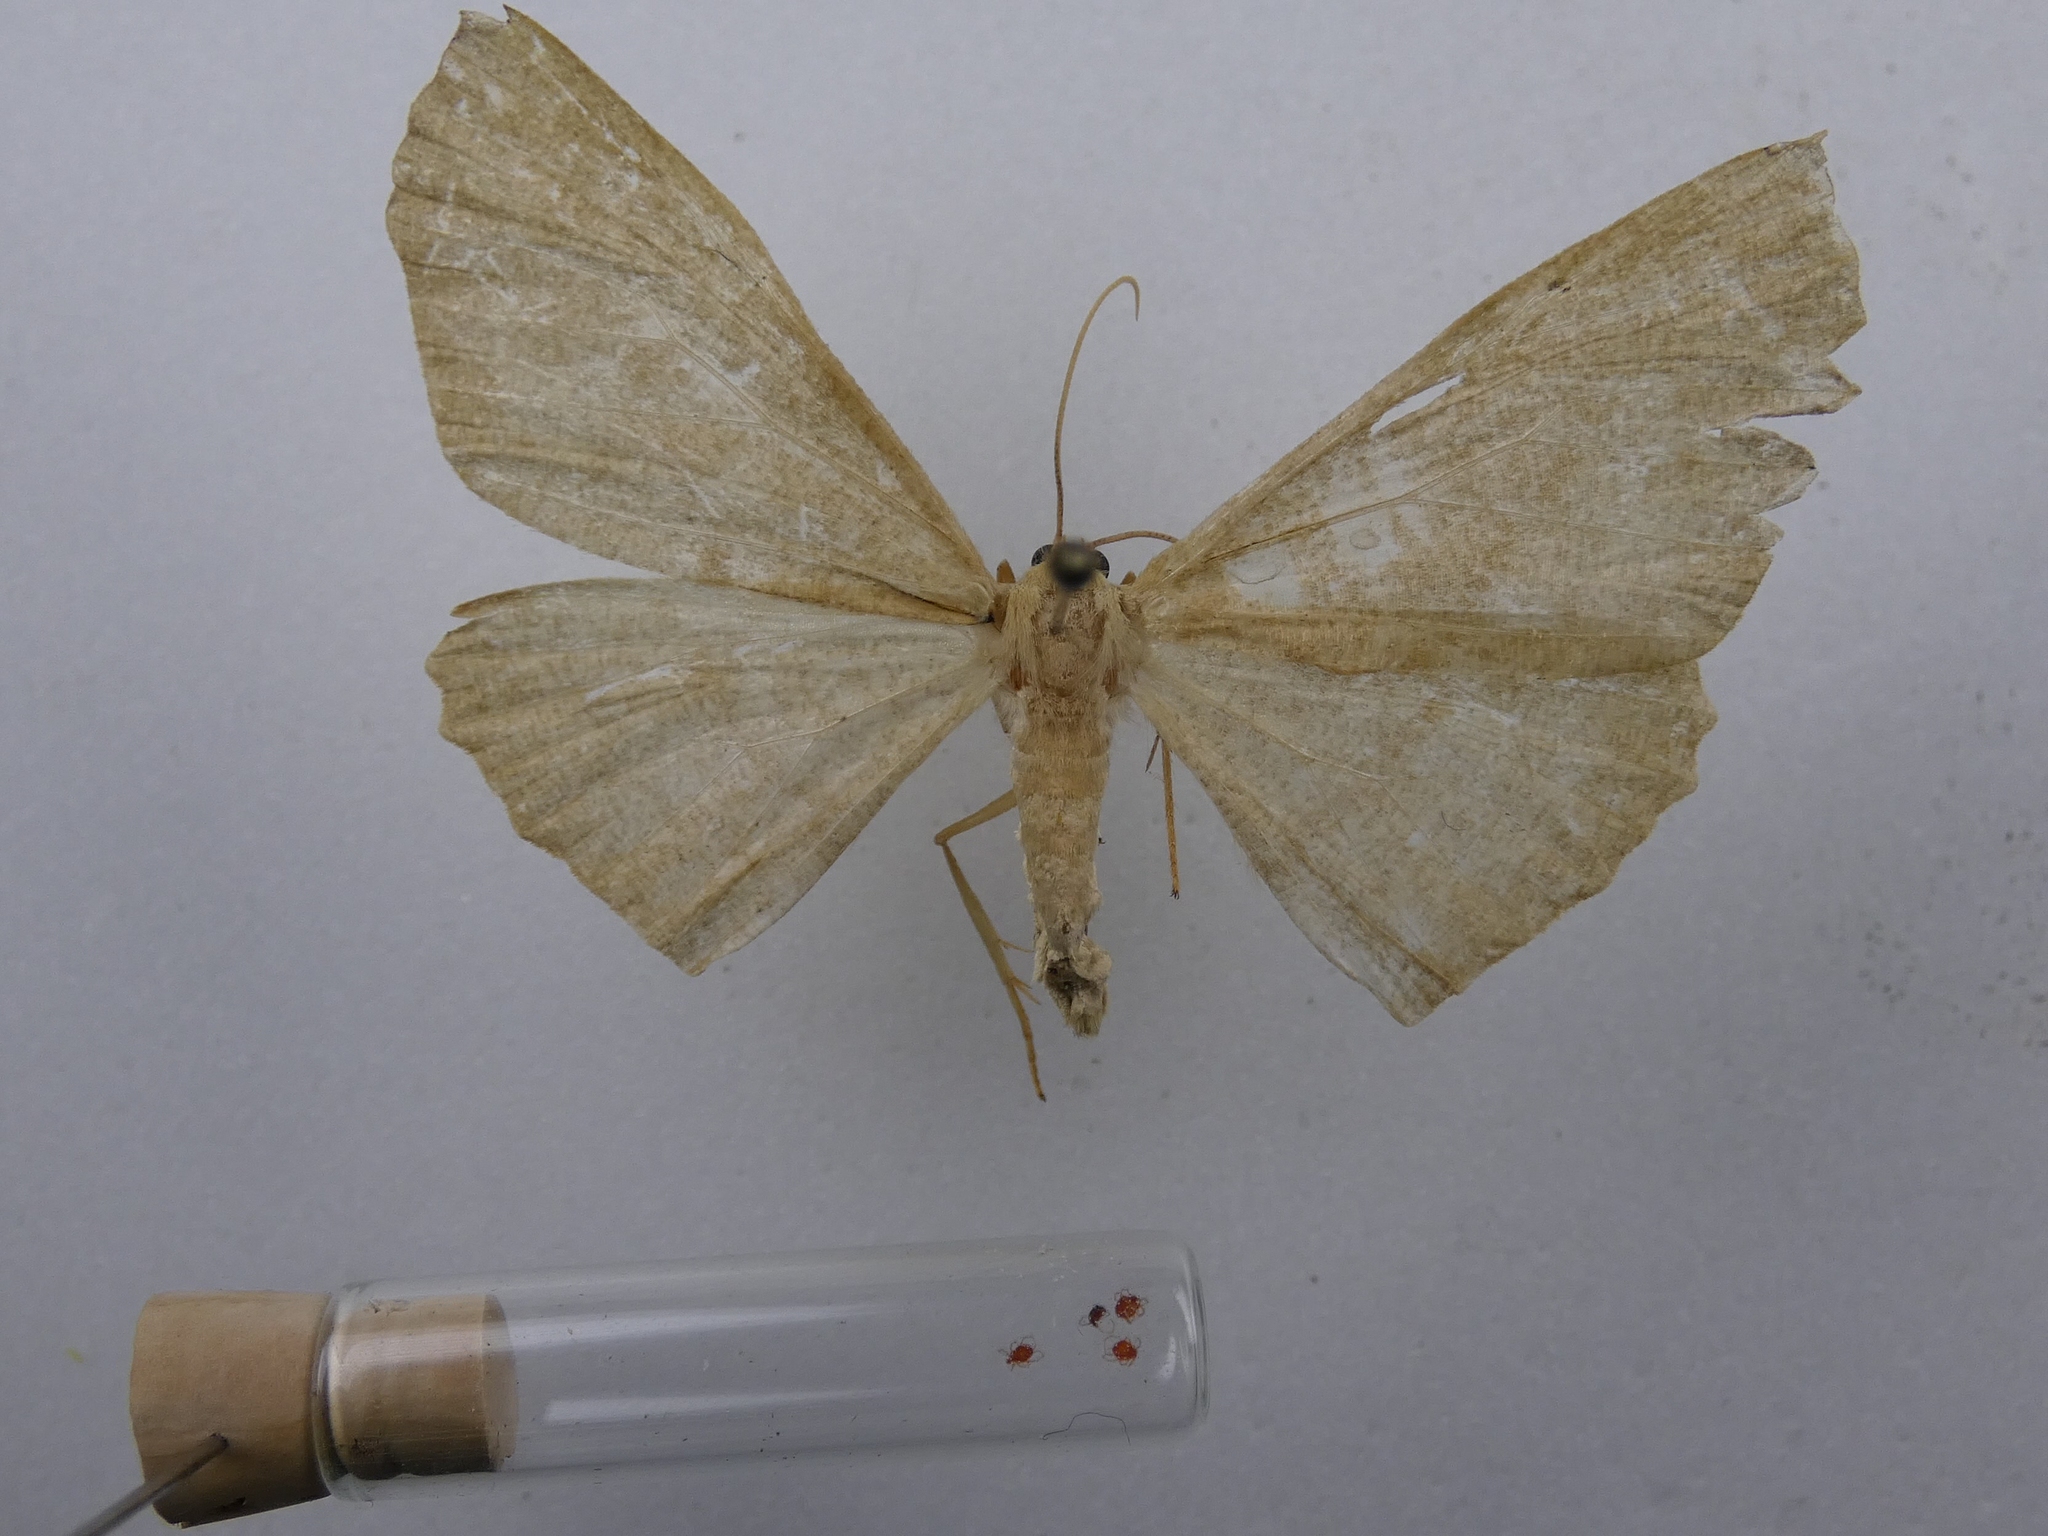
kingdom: Animalia
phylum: Arthropoda
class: Insecta
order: Lepidoptera
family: Geometridae
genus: Xyridacma
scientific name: Xyridacma alectoraria
